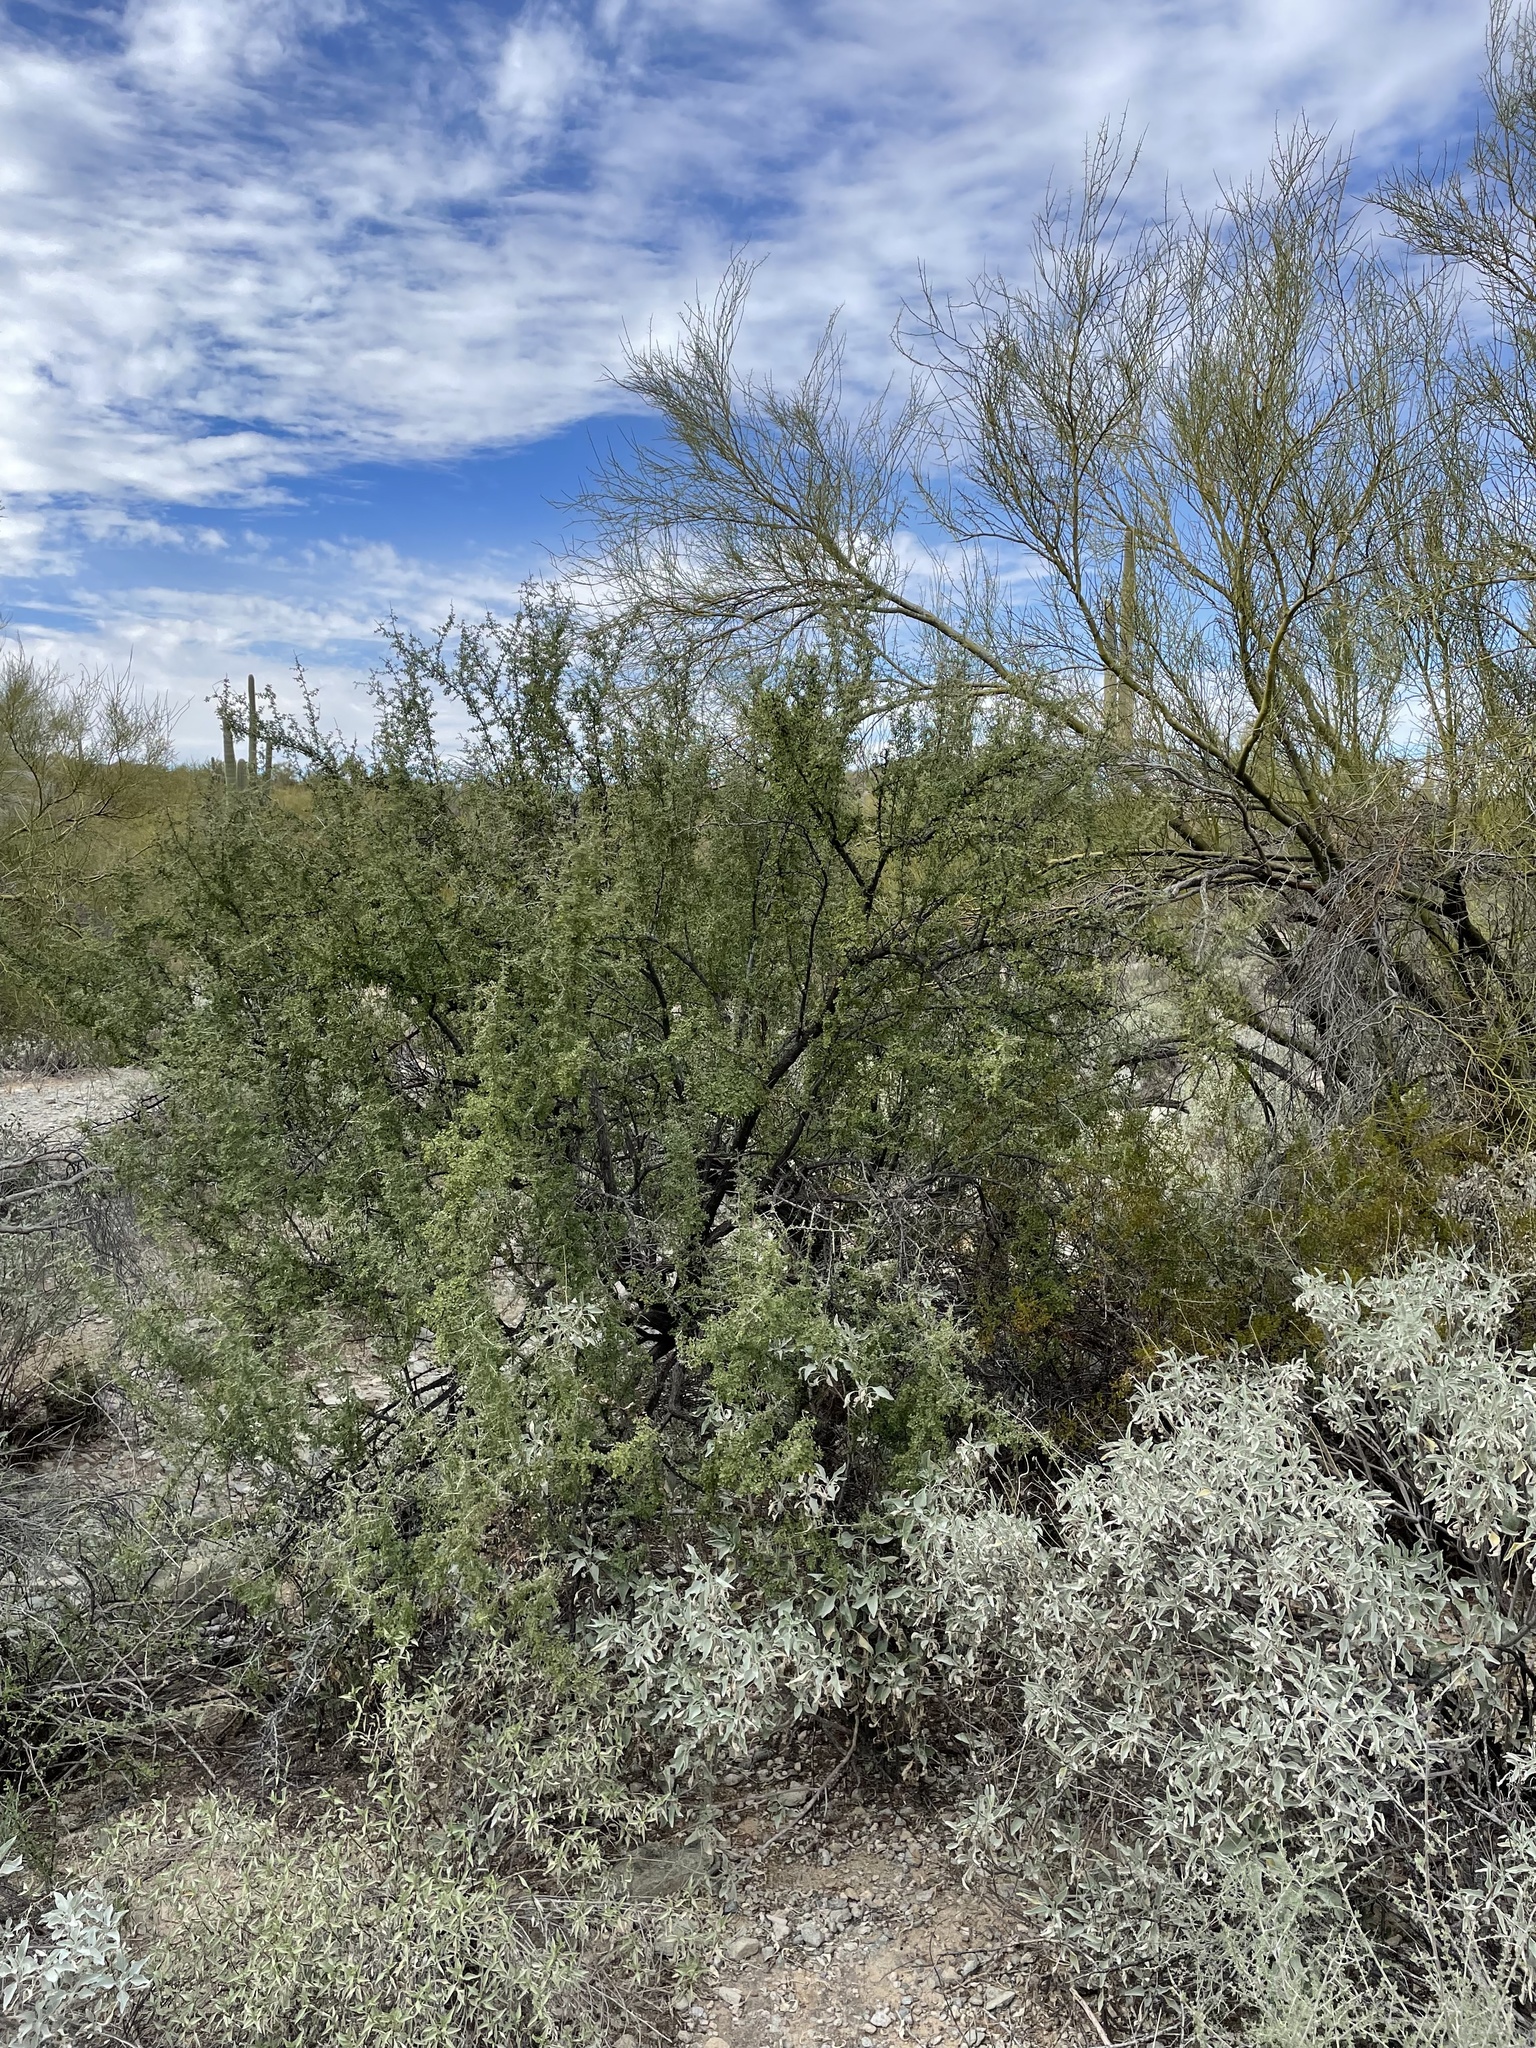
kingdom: Plantae
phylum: Tracheophyta
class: Magnoliopsida
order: Rosales
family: Rhamnaceae
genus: Condalia
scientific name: Condalia globosa
